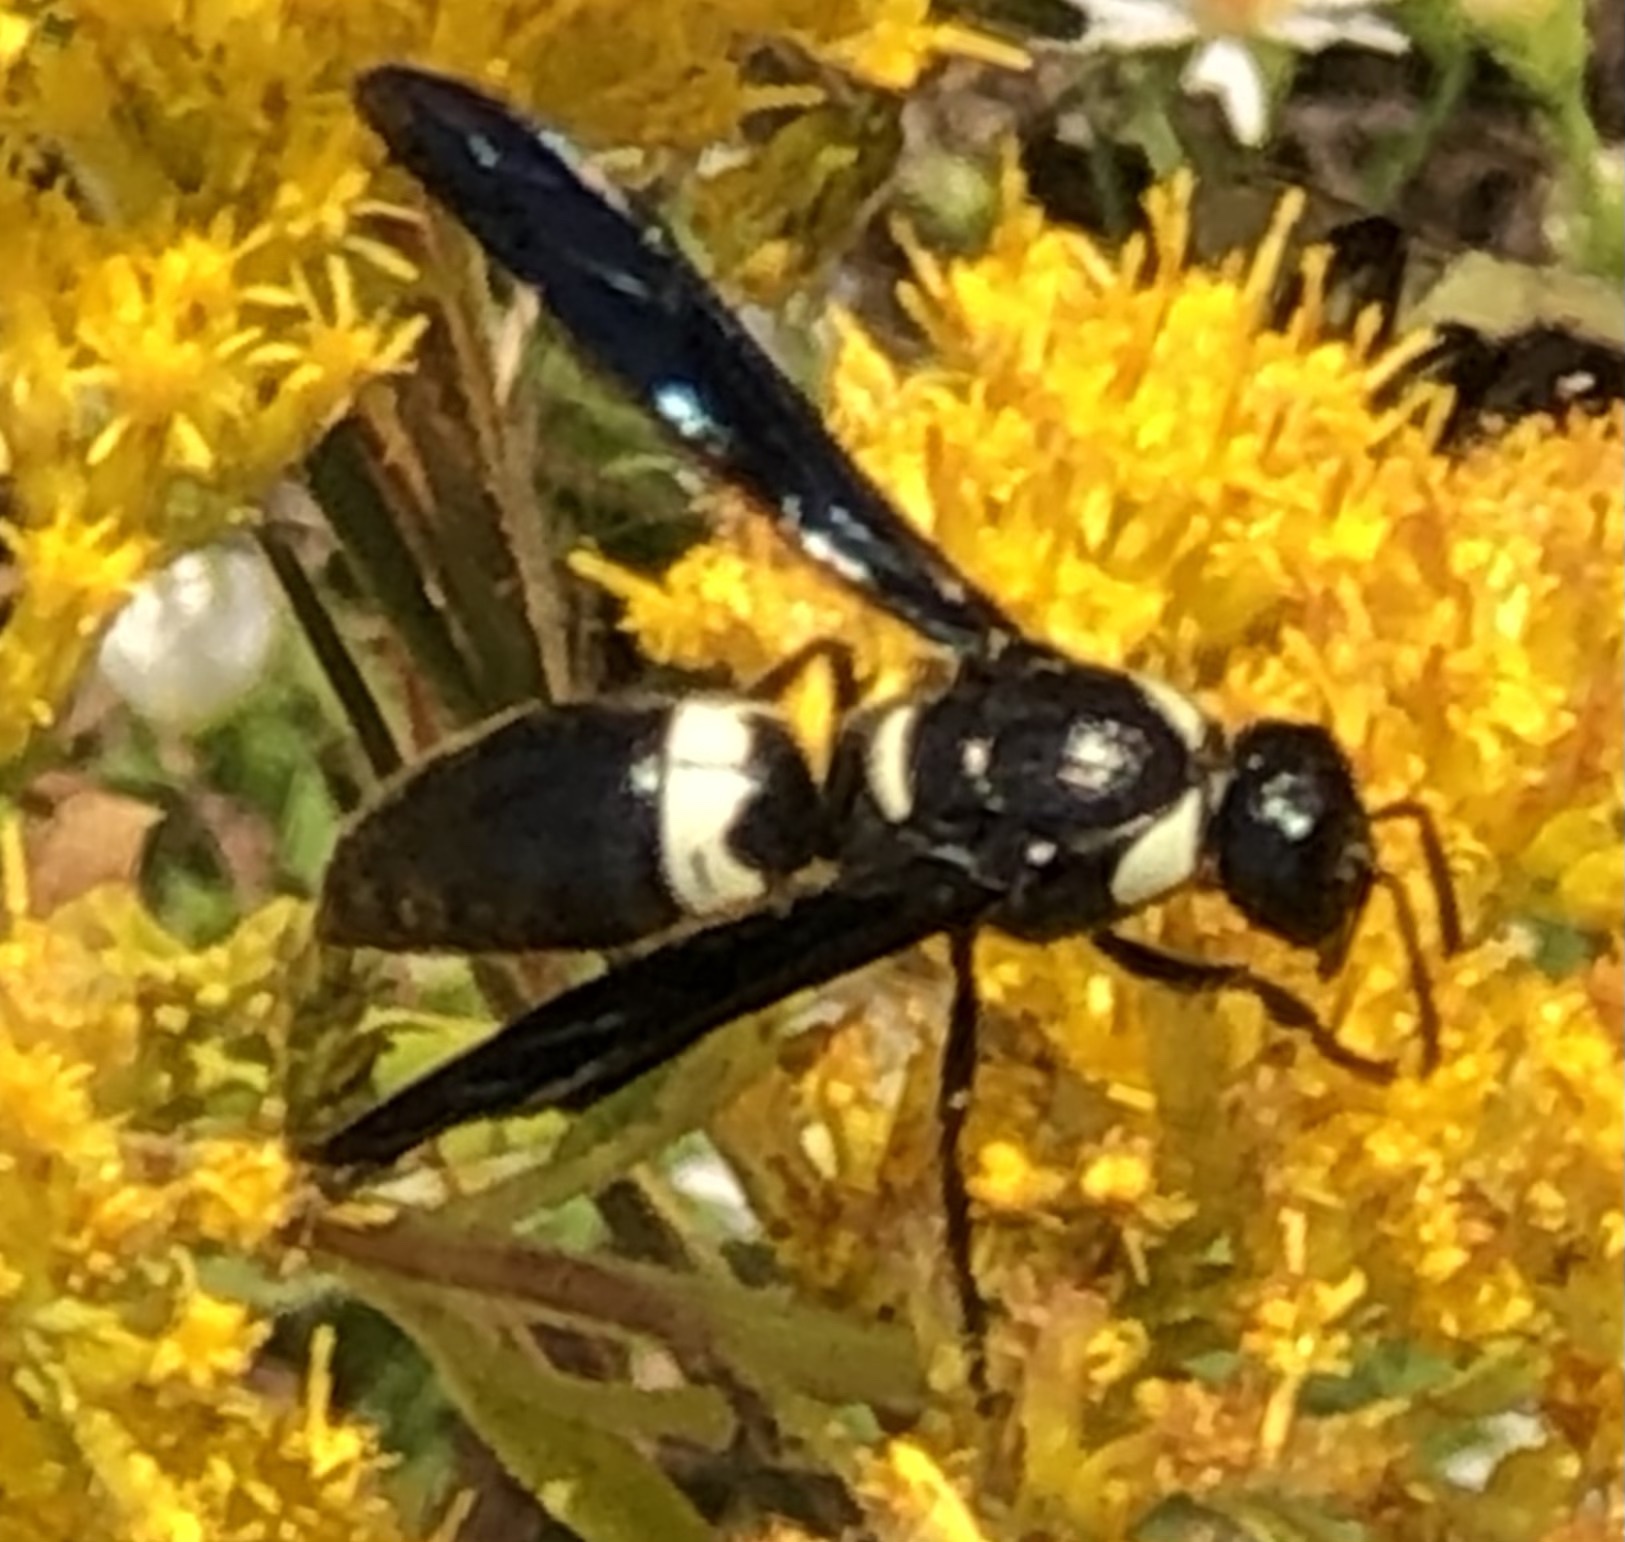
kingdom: Animalia
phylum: Arthropoda
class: Insecta
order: Hymenoptera
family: Eumenidae
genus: Monobia
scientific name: Monobia quadridens
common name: Four-toothed mason wasp
